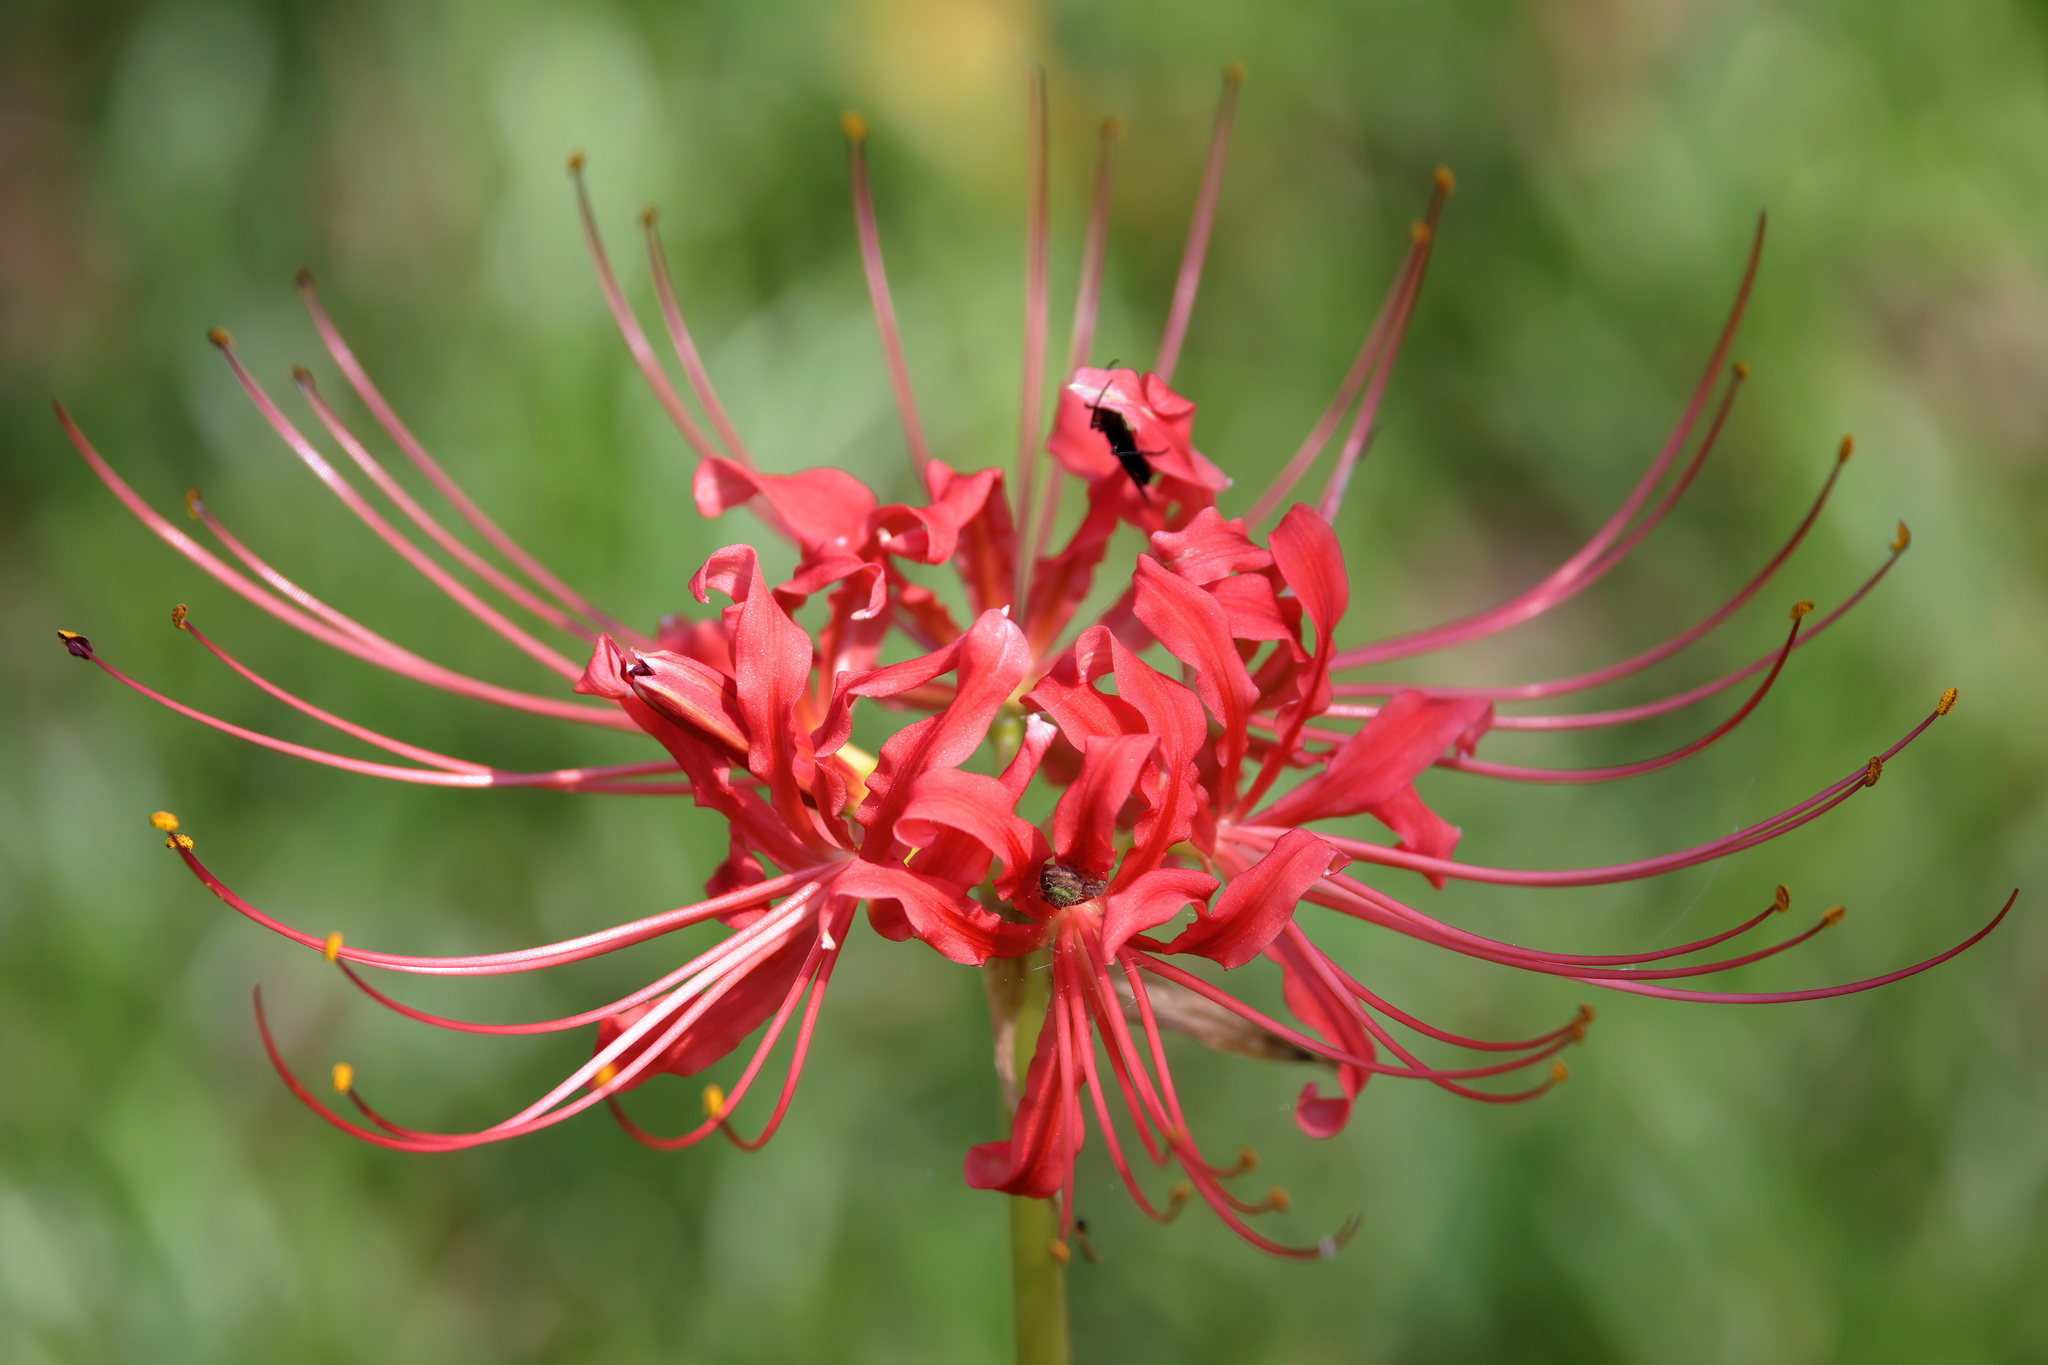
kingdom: Plantae
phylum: Tracheophyta
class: Liliopsida
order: Asparagales
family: Amaryllidaceae
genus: Lycoris
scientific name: Lycoris radiata
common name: Red spider lily
